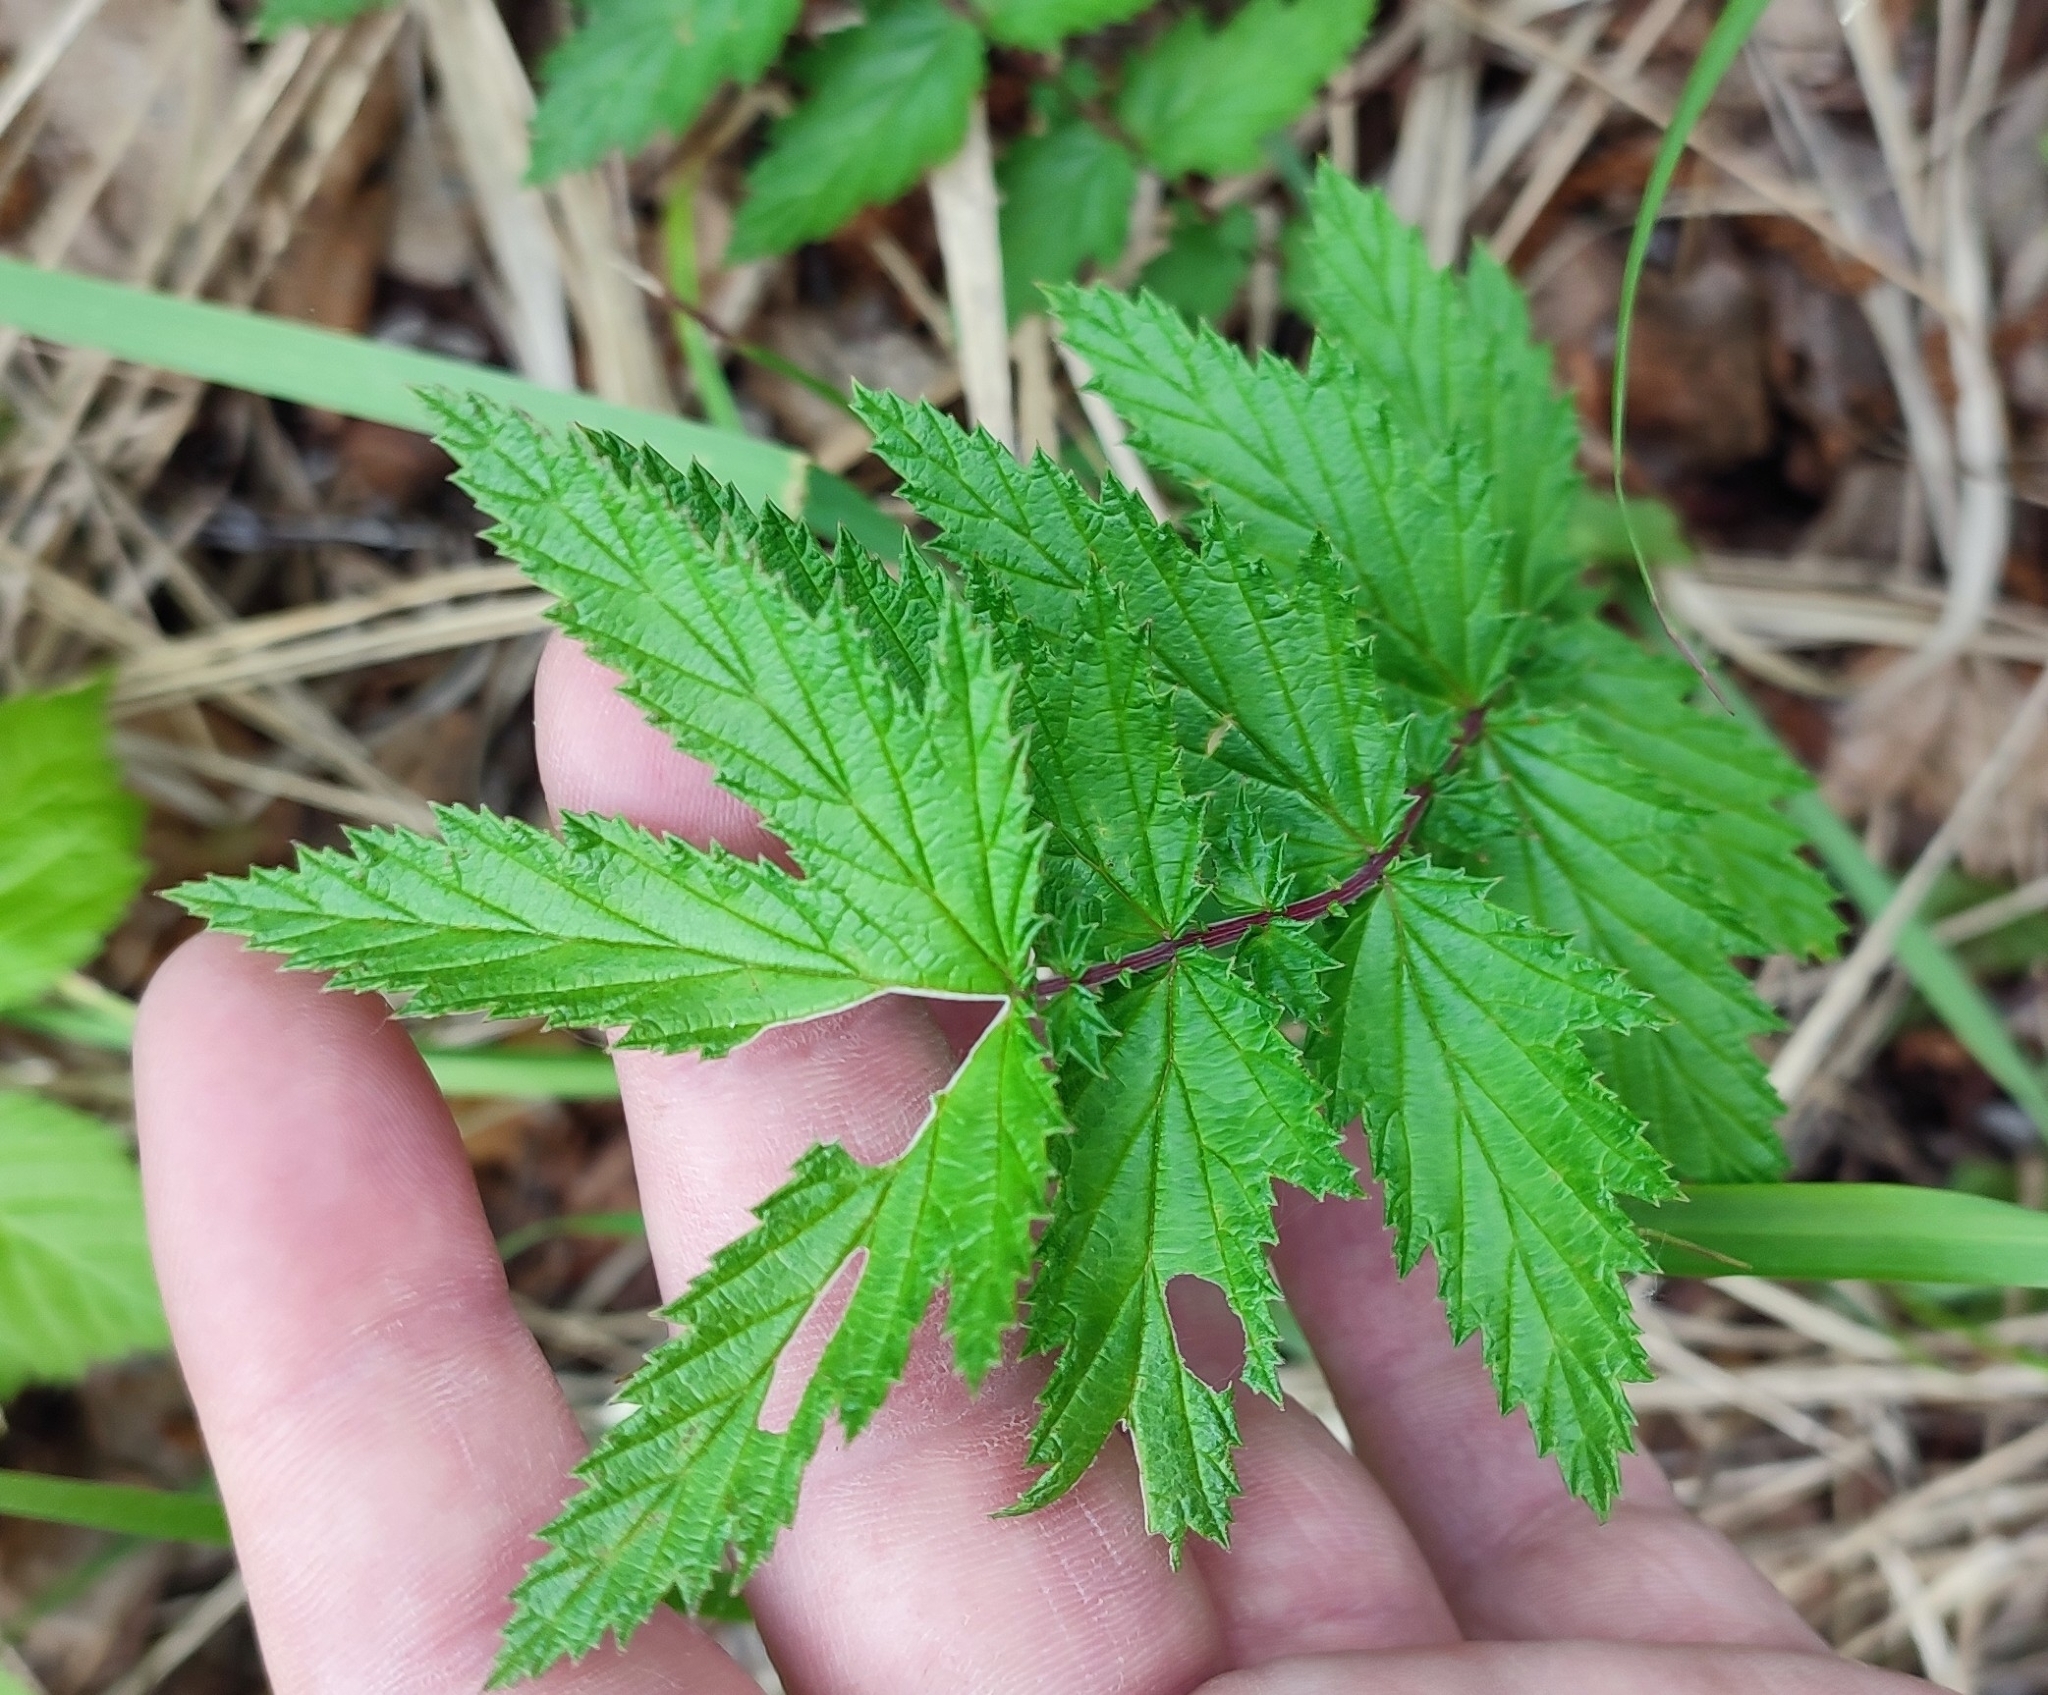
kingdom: Plantae
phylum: Tracheophyta
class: Magnoliopsida
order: Rosales
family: Rosaceae
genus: Filipendula
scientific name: Filipendula ulmaria
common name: Meadowsweet
